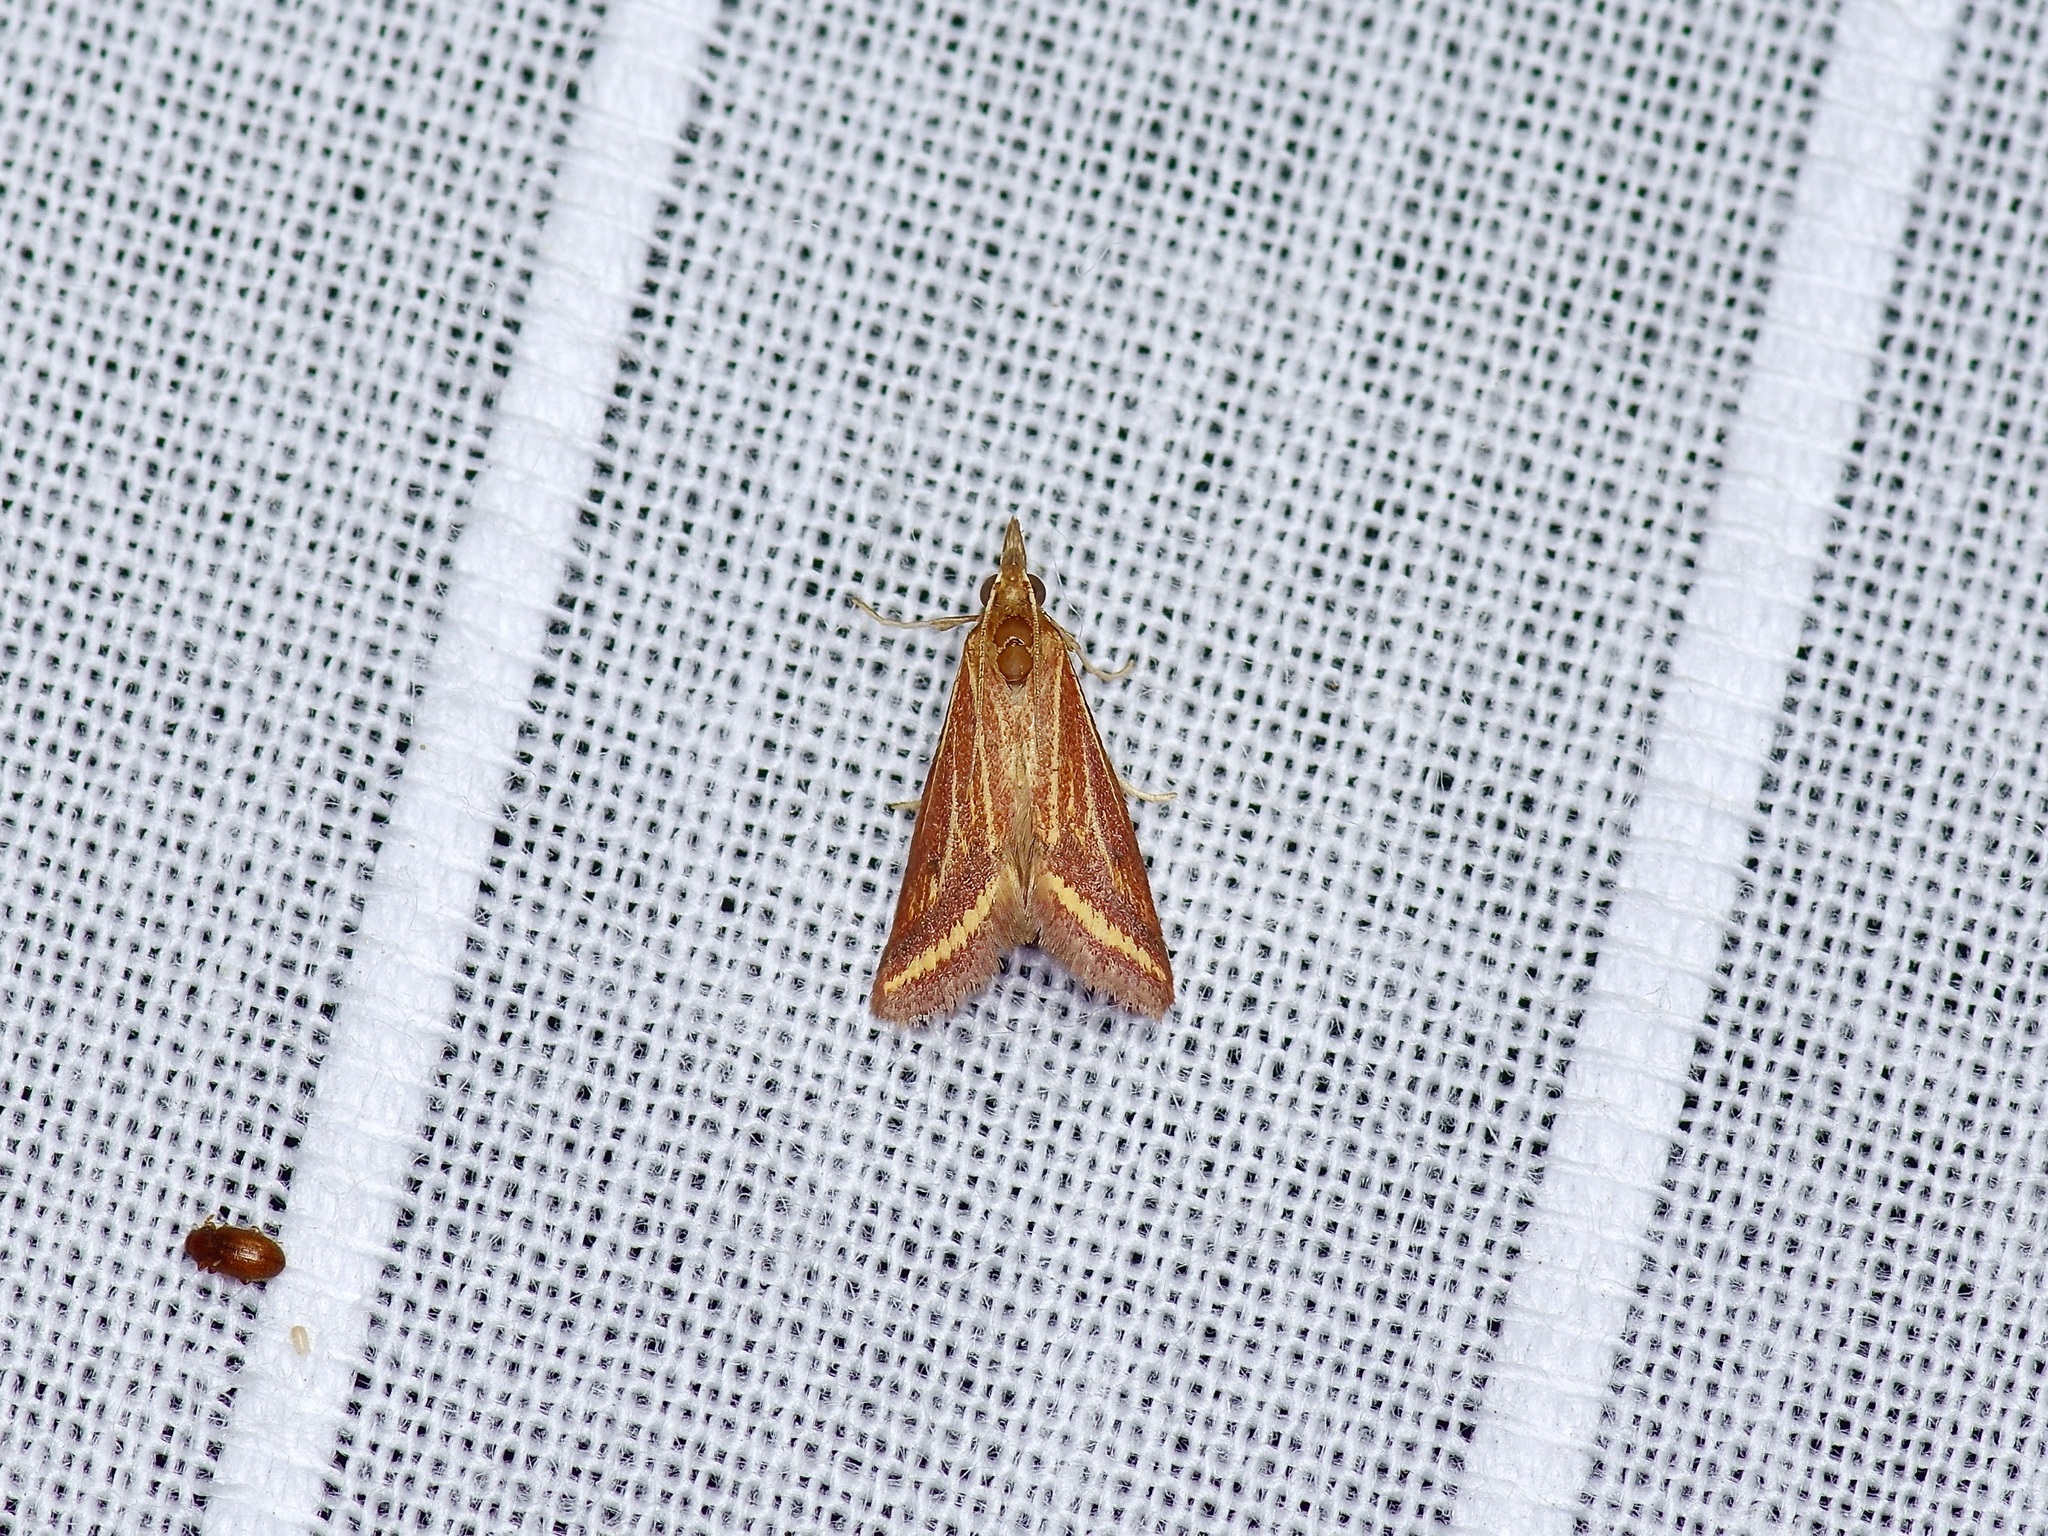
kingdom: Animalia
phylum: Arthropoda
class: Insecta
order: Lepidoptera
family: Crambidae
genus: Microtheoris
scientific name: Microtheoris ophionalis
